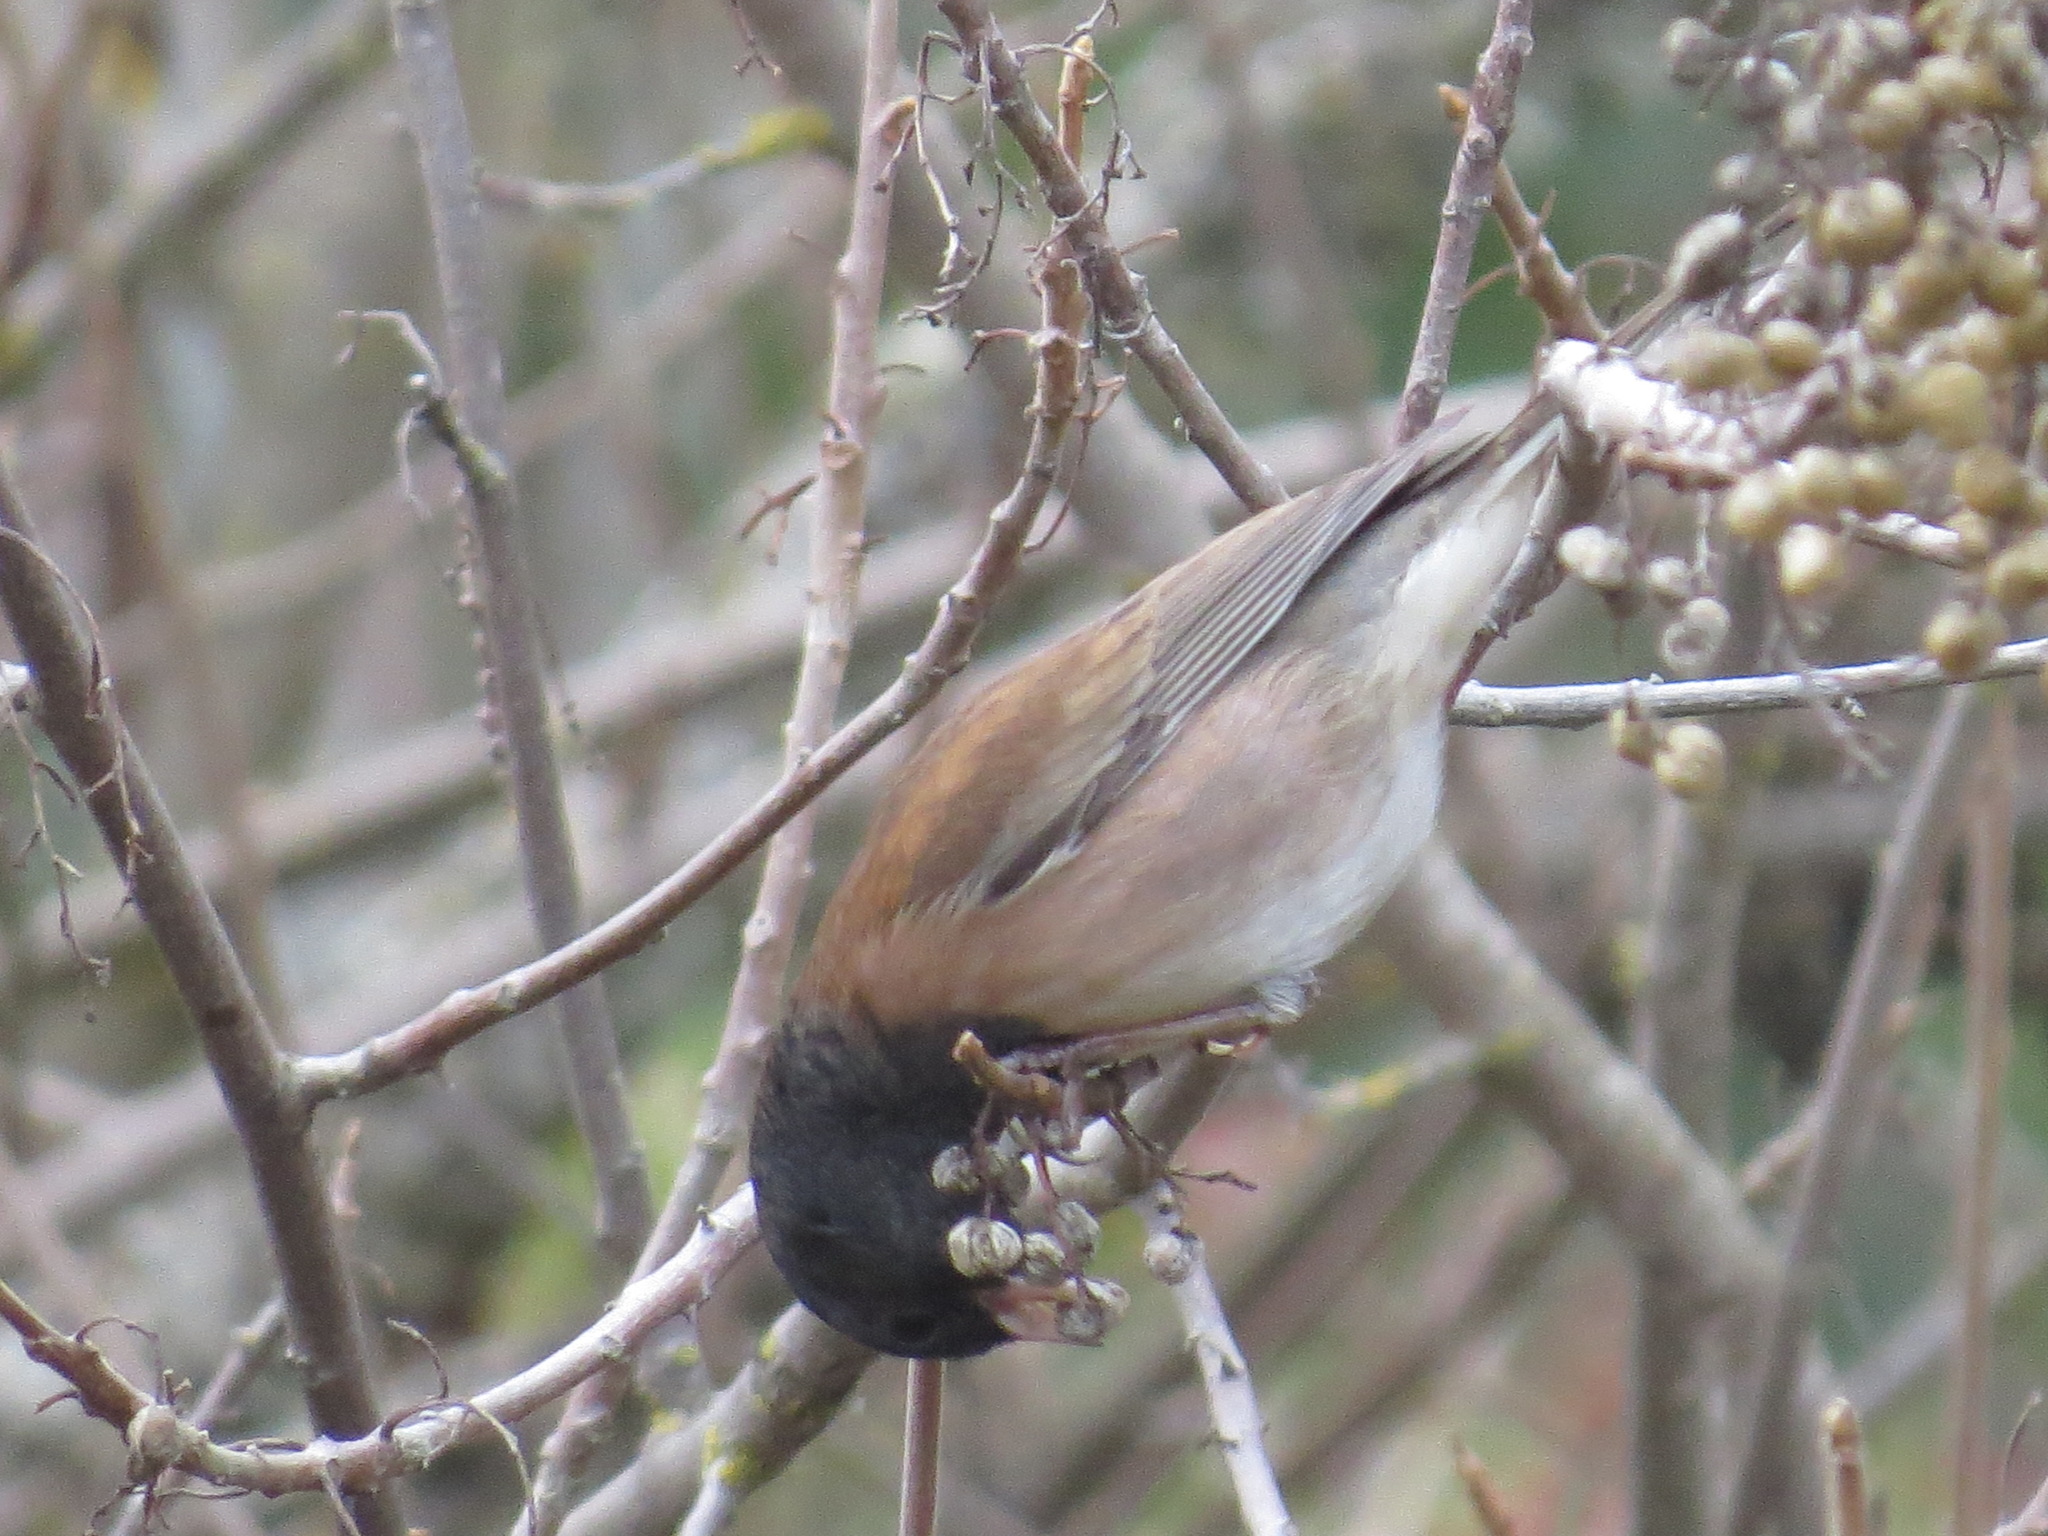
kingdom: Animalia
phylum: Chordata
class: Aves
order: Passeriformes
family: Passerellidae
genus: Junco
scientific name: Junco hyemalis
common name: Dark-eyed junco
